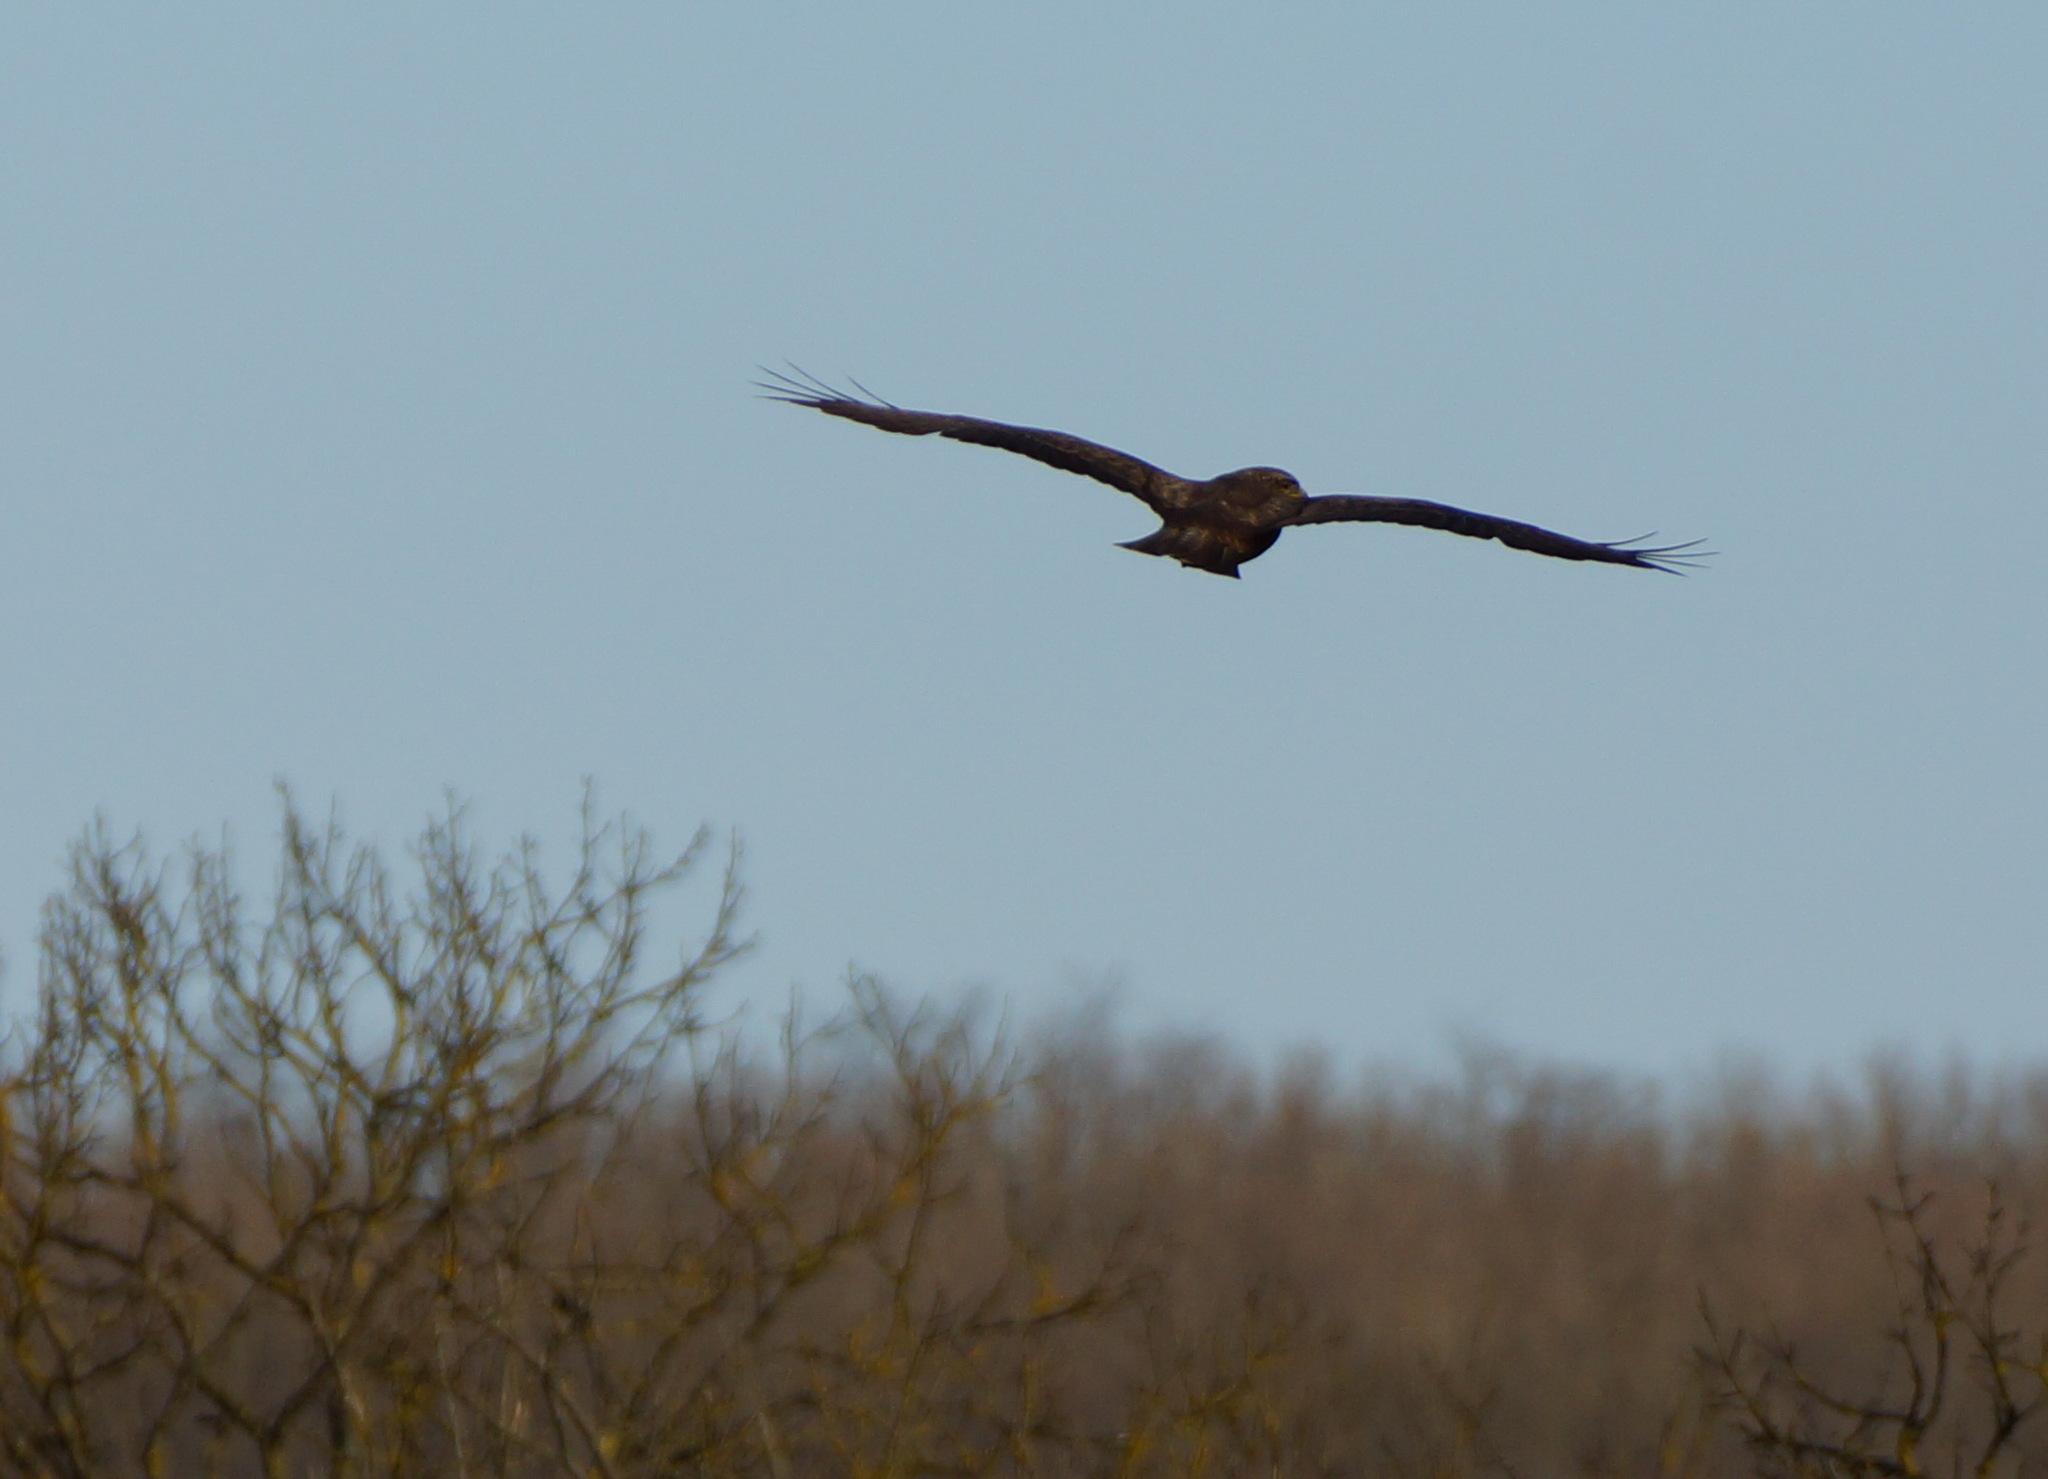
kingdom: Animalia
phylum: Chordata
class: Aves
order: Accipitriformes
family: Accipitridae
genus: Buteo
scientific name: Buteo buteo
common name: Common buzzard
